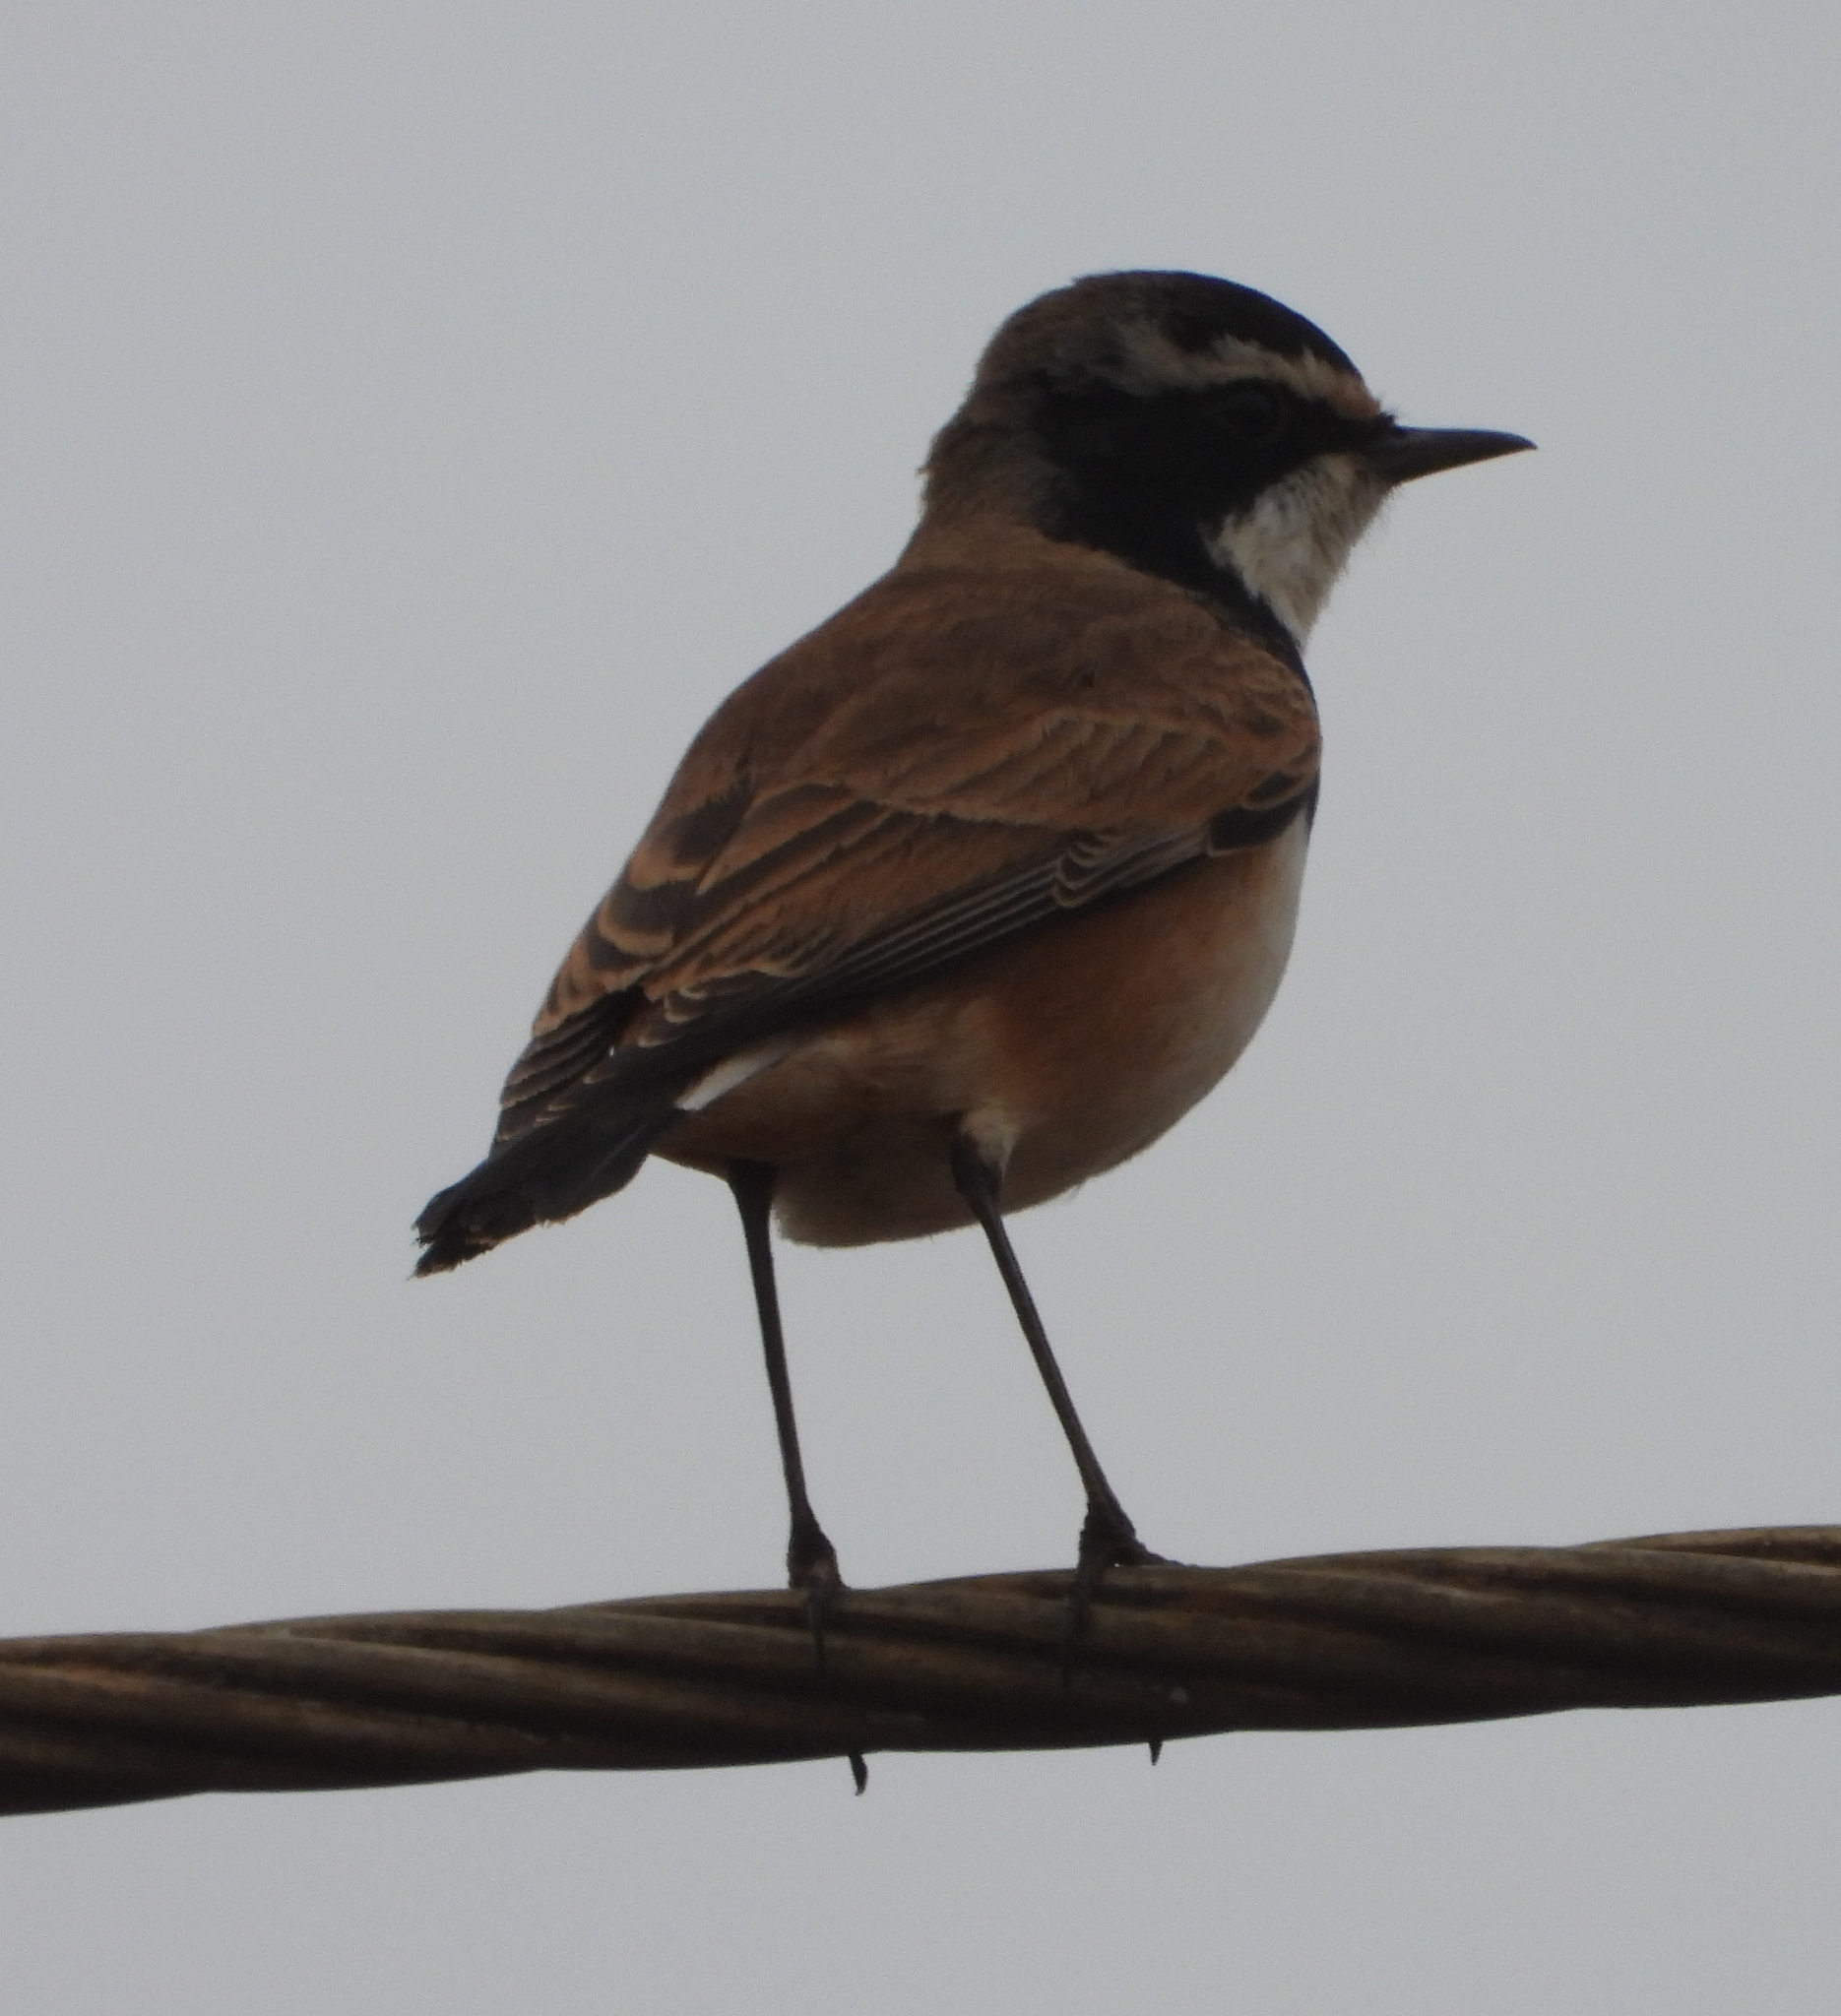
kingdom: Animalia
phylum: Chordata
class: Aves
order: Passeriformes
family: Muscicapidae
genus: Oenanthe
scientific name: Oenanthe pileata
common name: Capped wheatear
